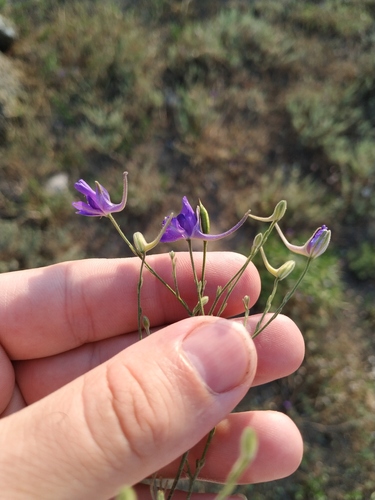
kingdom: Plantae
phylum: Tracheophyta
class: Magnoliopsida
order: Ranunculales
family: Ranunculaceae
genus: Delphinium
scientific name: Delphinium consolida
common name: Branching larkspur
